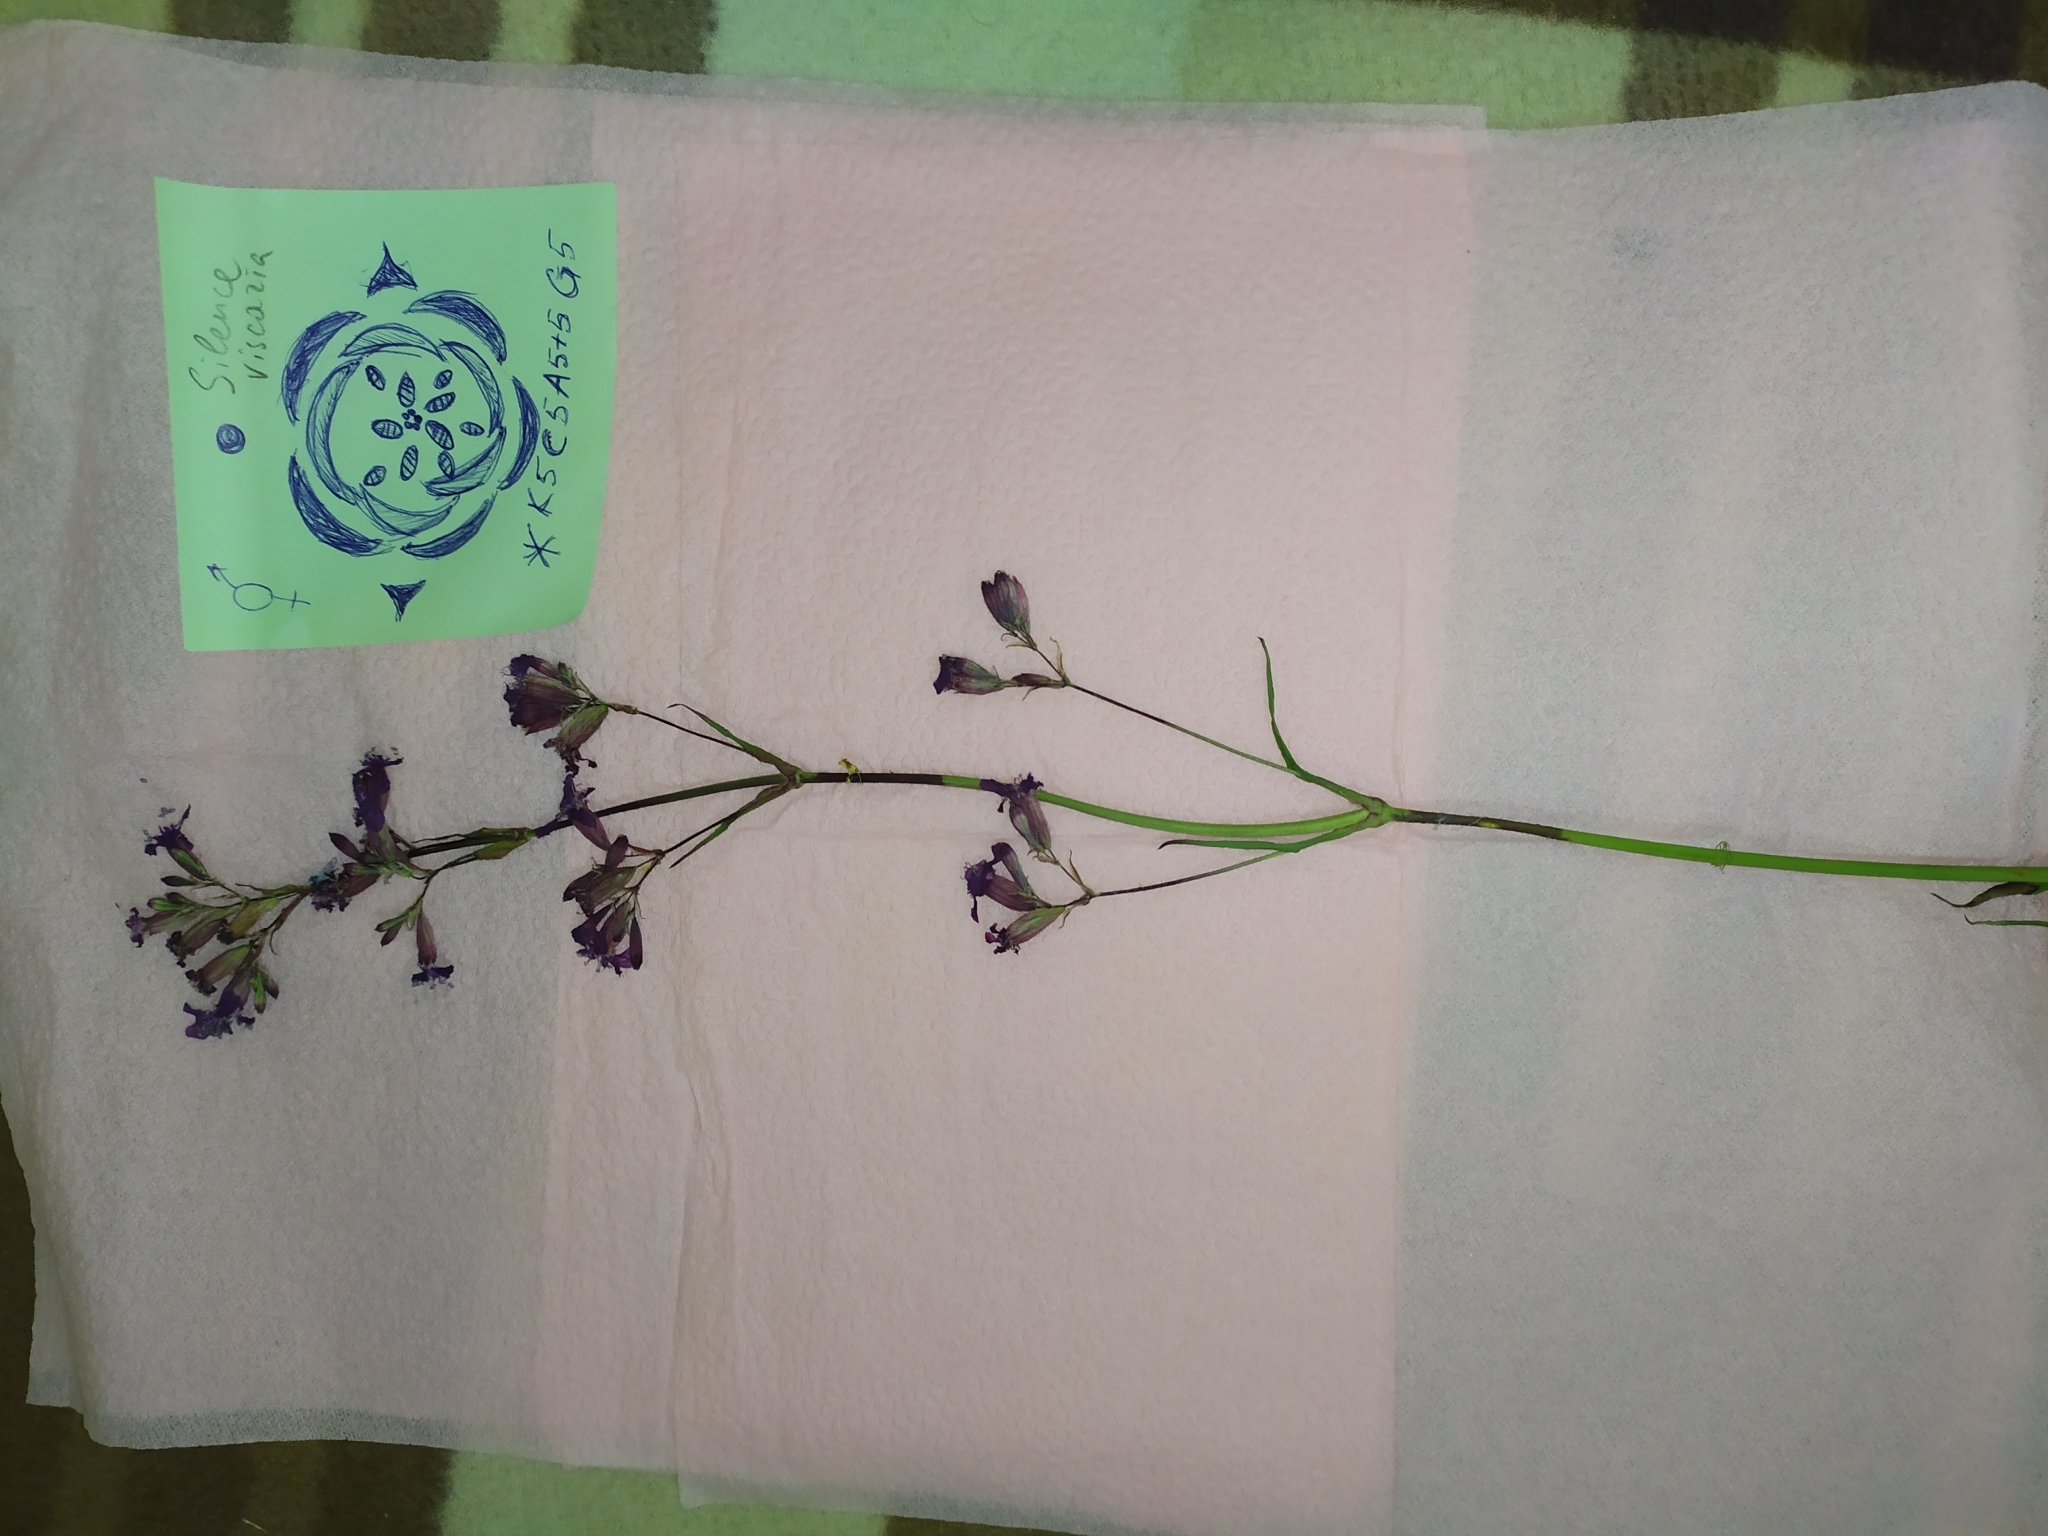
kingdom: Plantae
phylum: Tracheophyta
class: Magnoliopsida
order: Caryophyllales
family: Caryophyllaceae
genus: Viscaria
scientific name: Viscaria vulgaris
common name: Clammy campion
